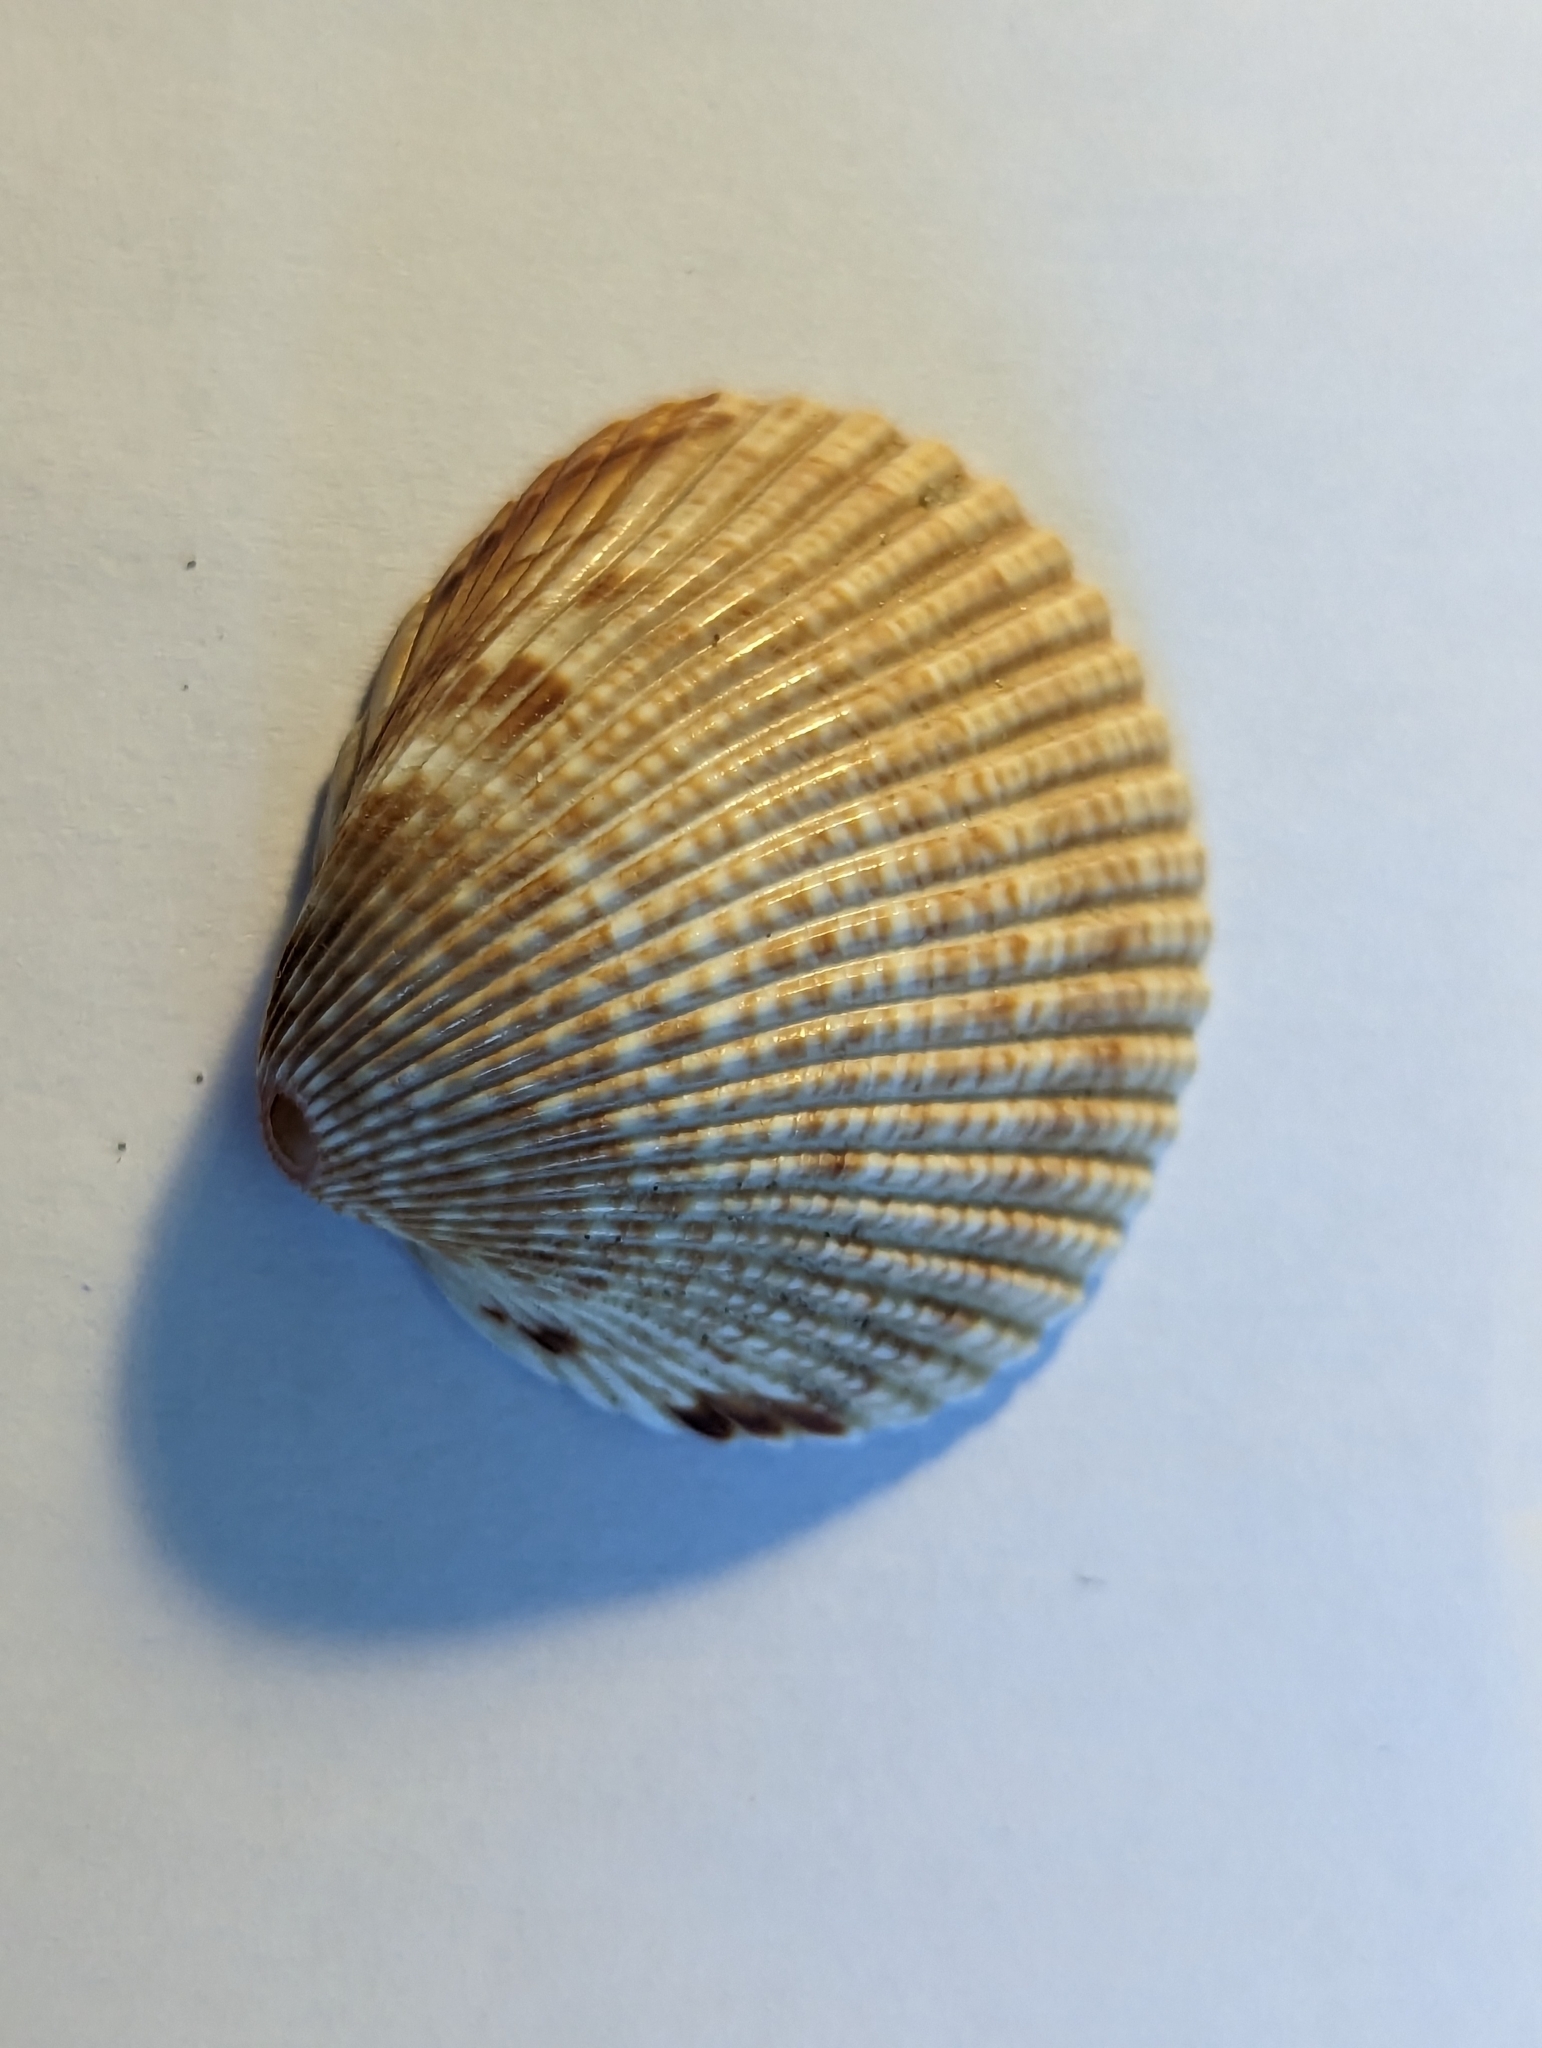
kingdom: Animalia
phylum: Mollusca
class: Bivalvia
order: Cardiida
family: Cardiidae
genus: Dinocardium
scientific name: Dinocardium robustum
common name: Atlantic giant cockle
